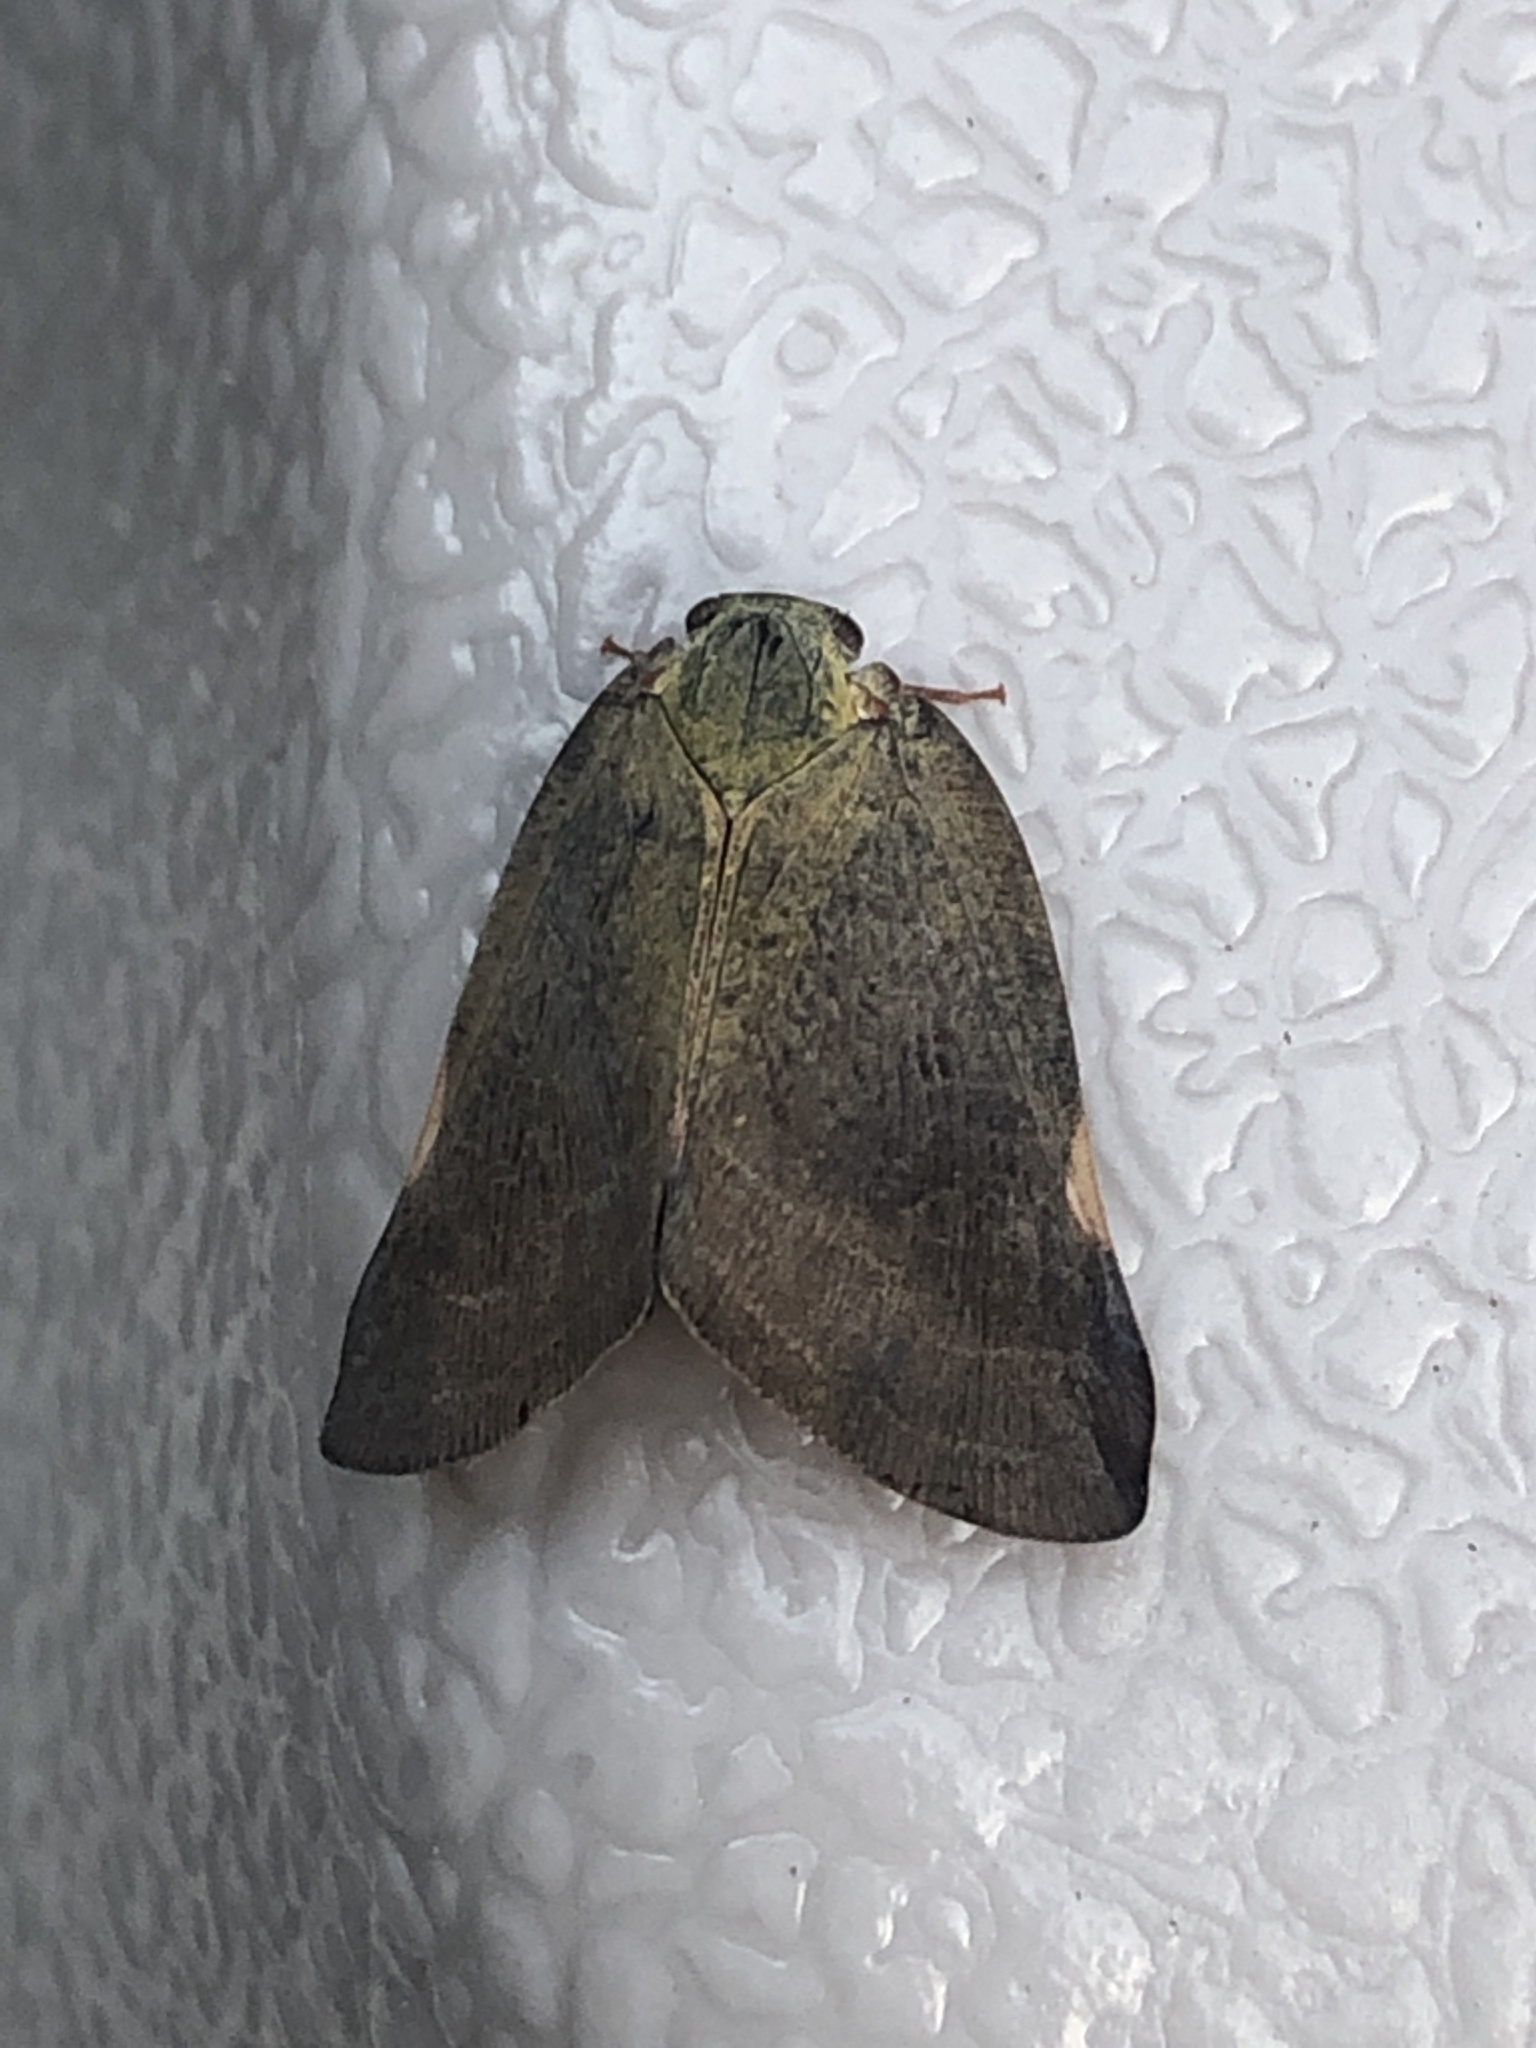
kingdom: Animalia
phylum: Arthropoda
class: Insecta
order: Hemiptera
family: Ricaniidae
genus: Ricanula
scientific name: Ricanula sublimata
